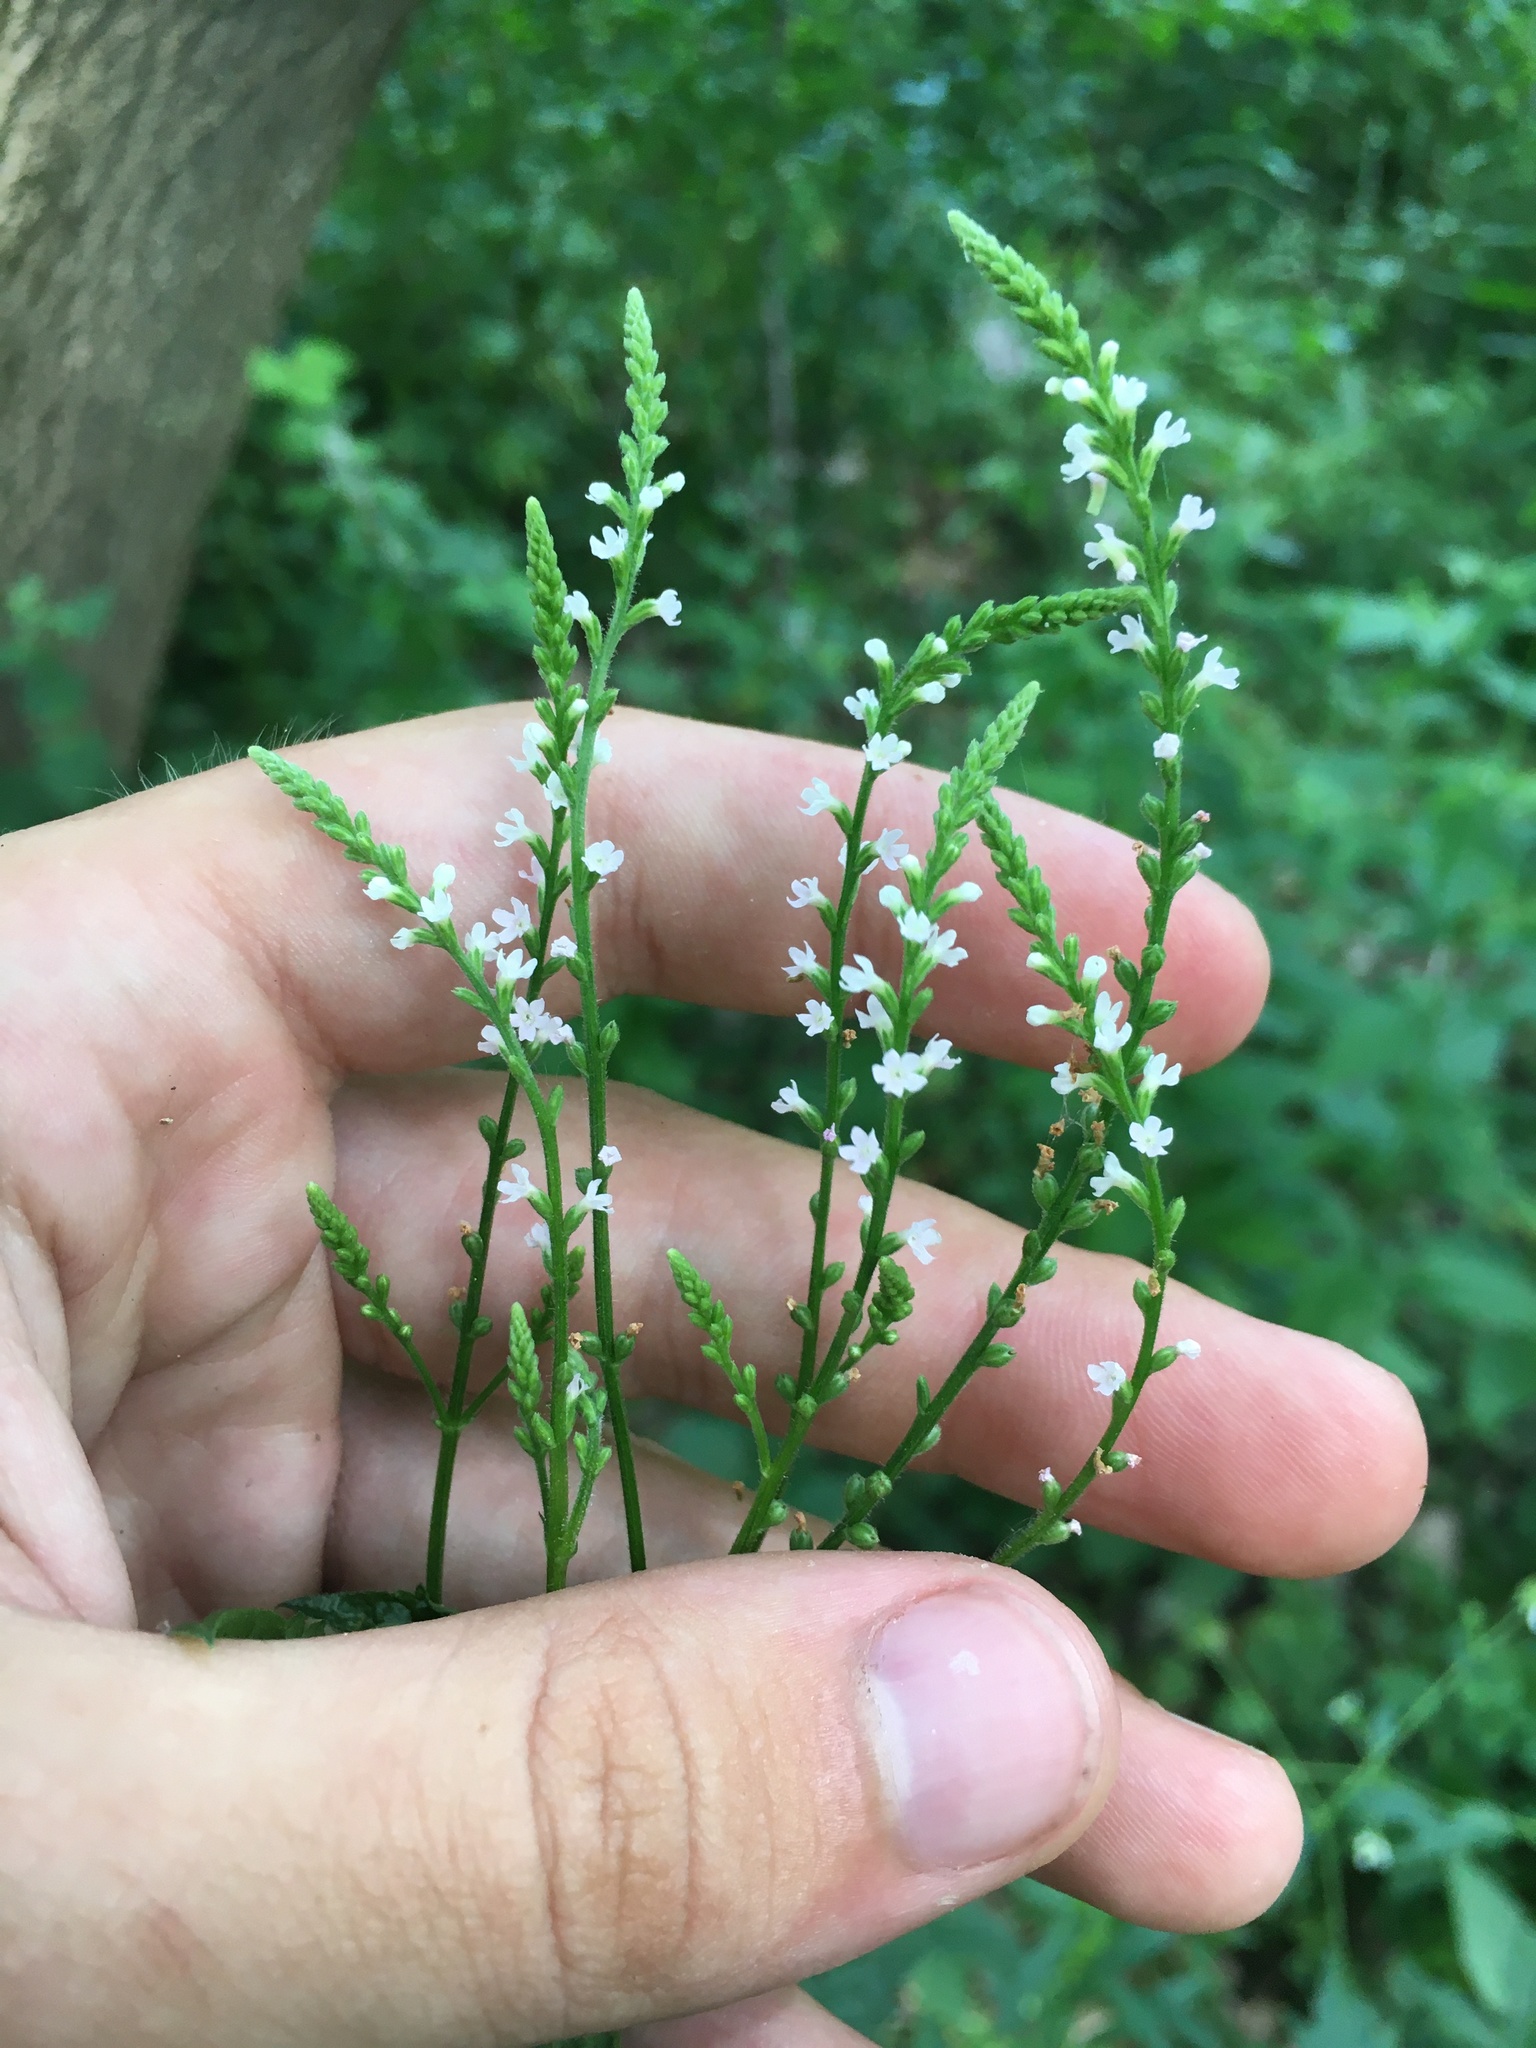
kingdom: Plantae
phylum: Tracheophyta
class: Magnoliopsida
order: Lamiales
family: Verbenaceae
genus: Verbena
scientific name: Verbena urticifolia
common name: Nettle-leaved vervain
